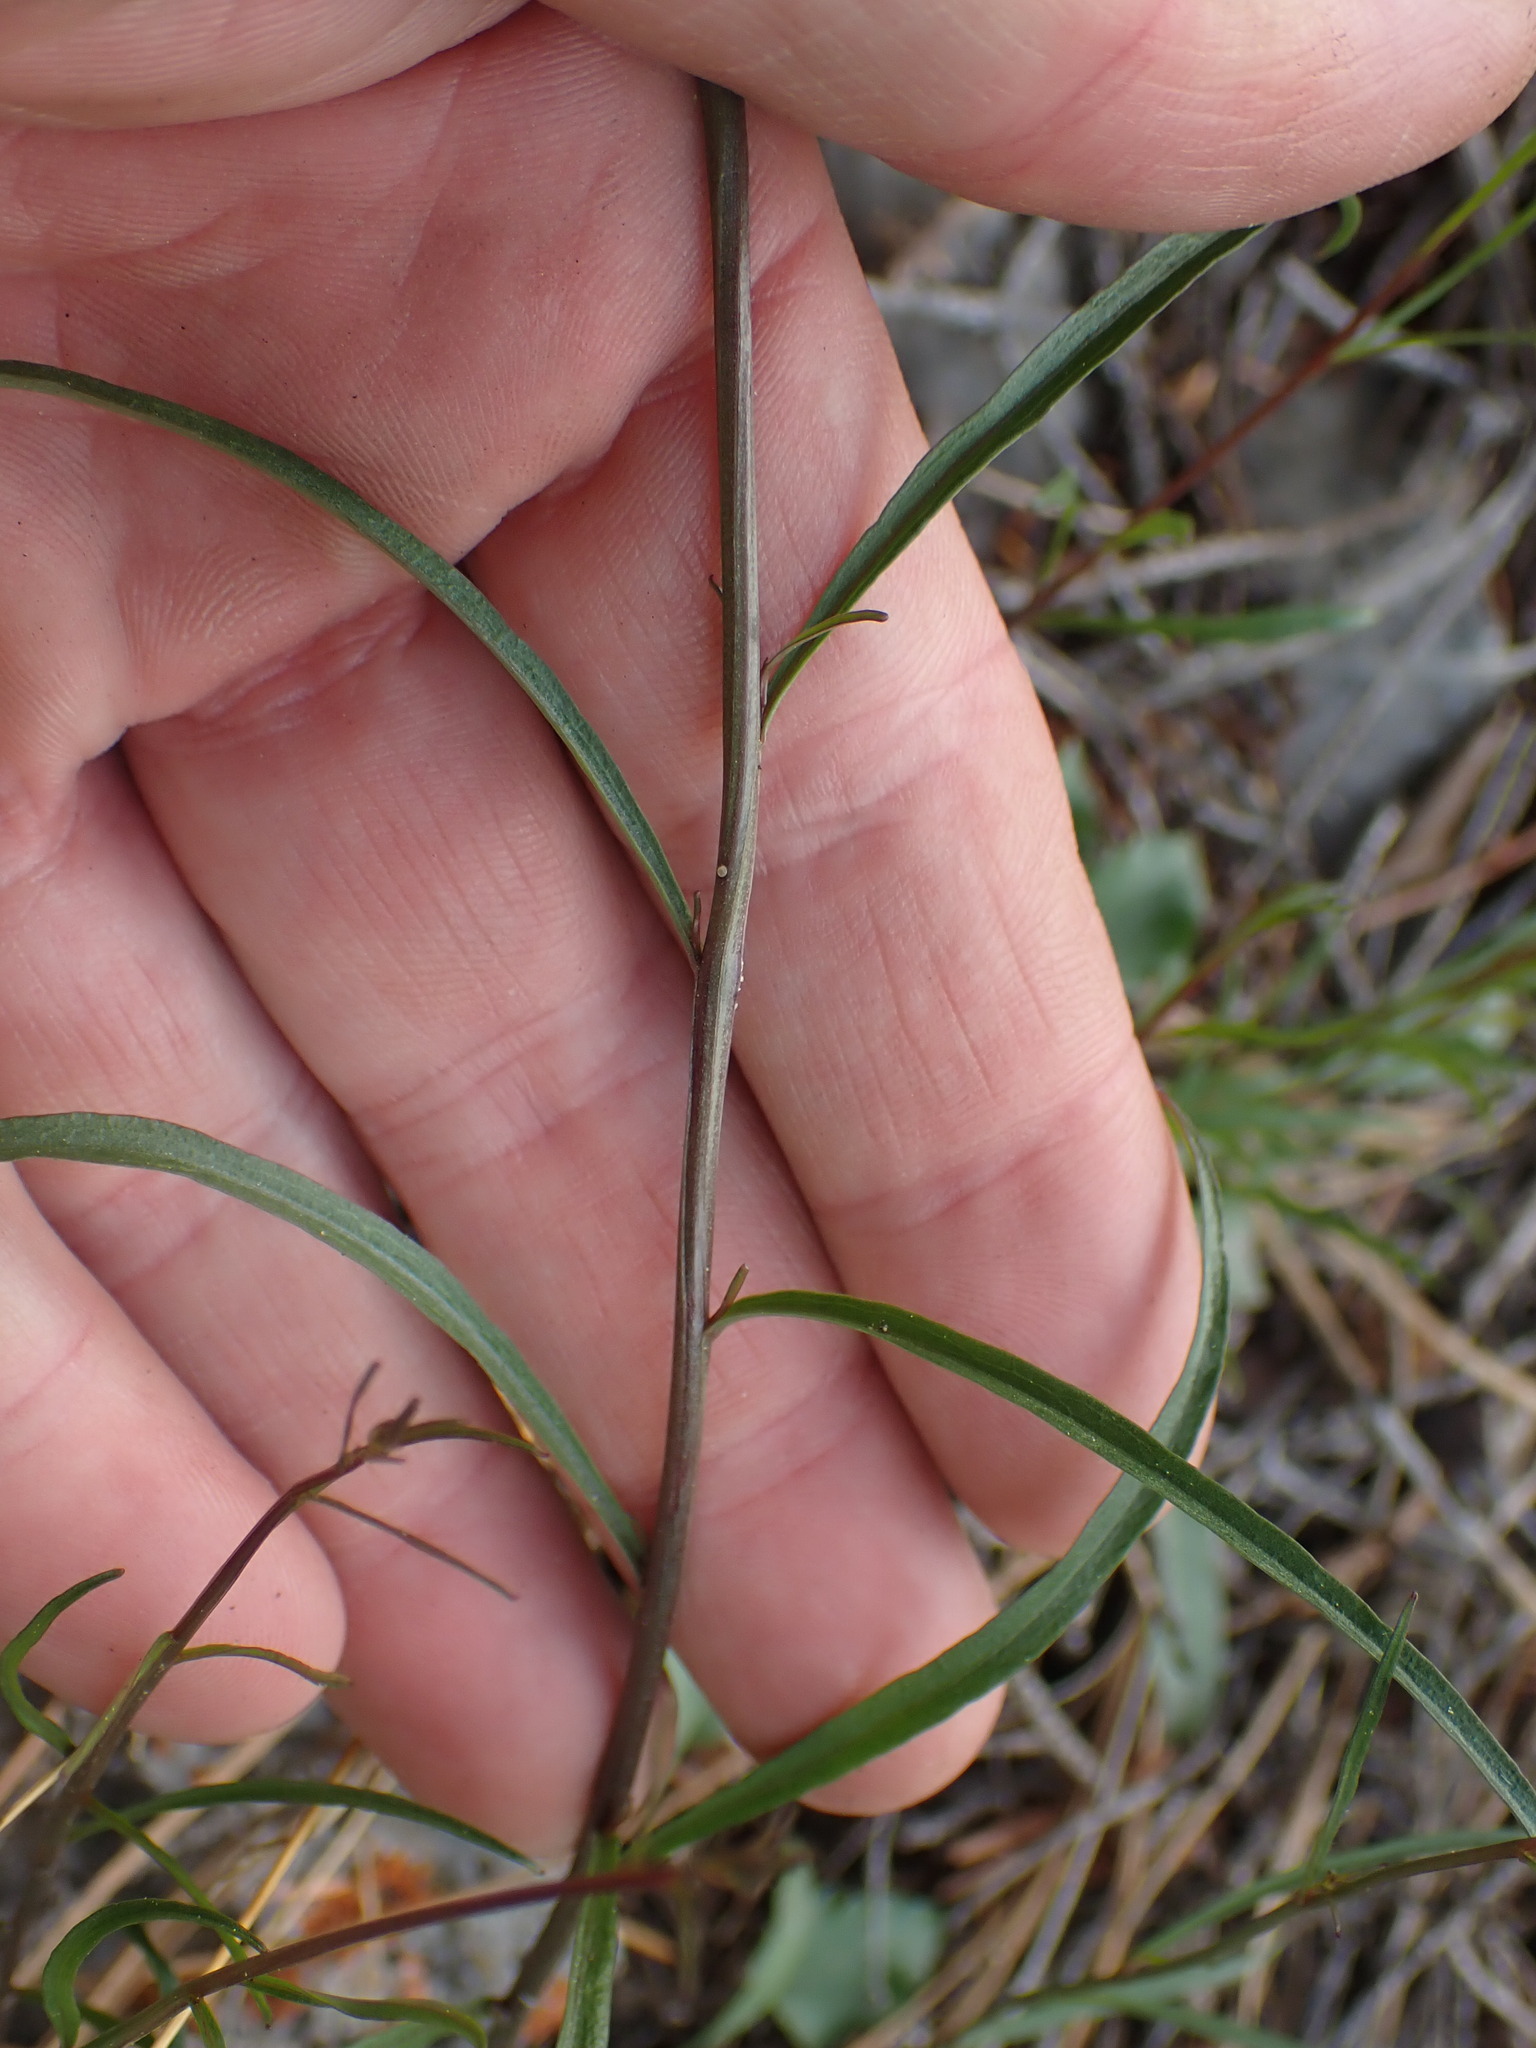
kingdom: Plantae
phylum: Tracheophyta
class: Magnoliopsida
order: Asterales
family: Campanulaceae
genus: Campanula
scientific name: Campanula alaskana
